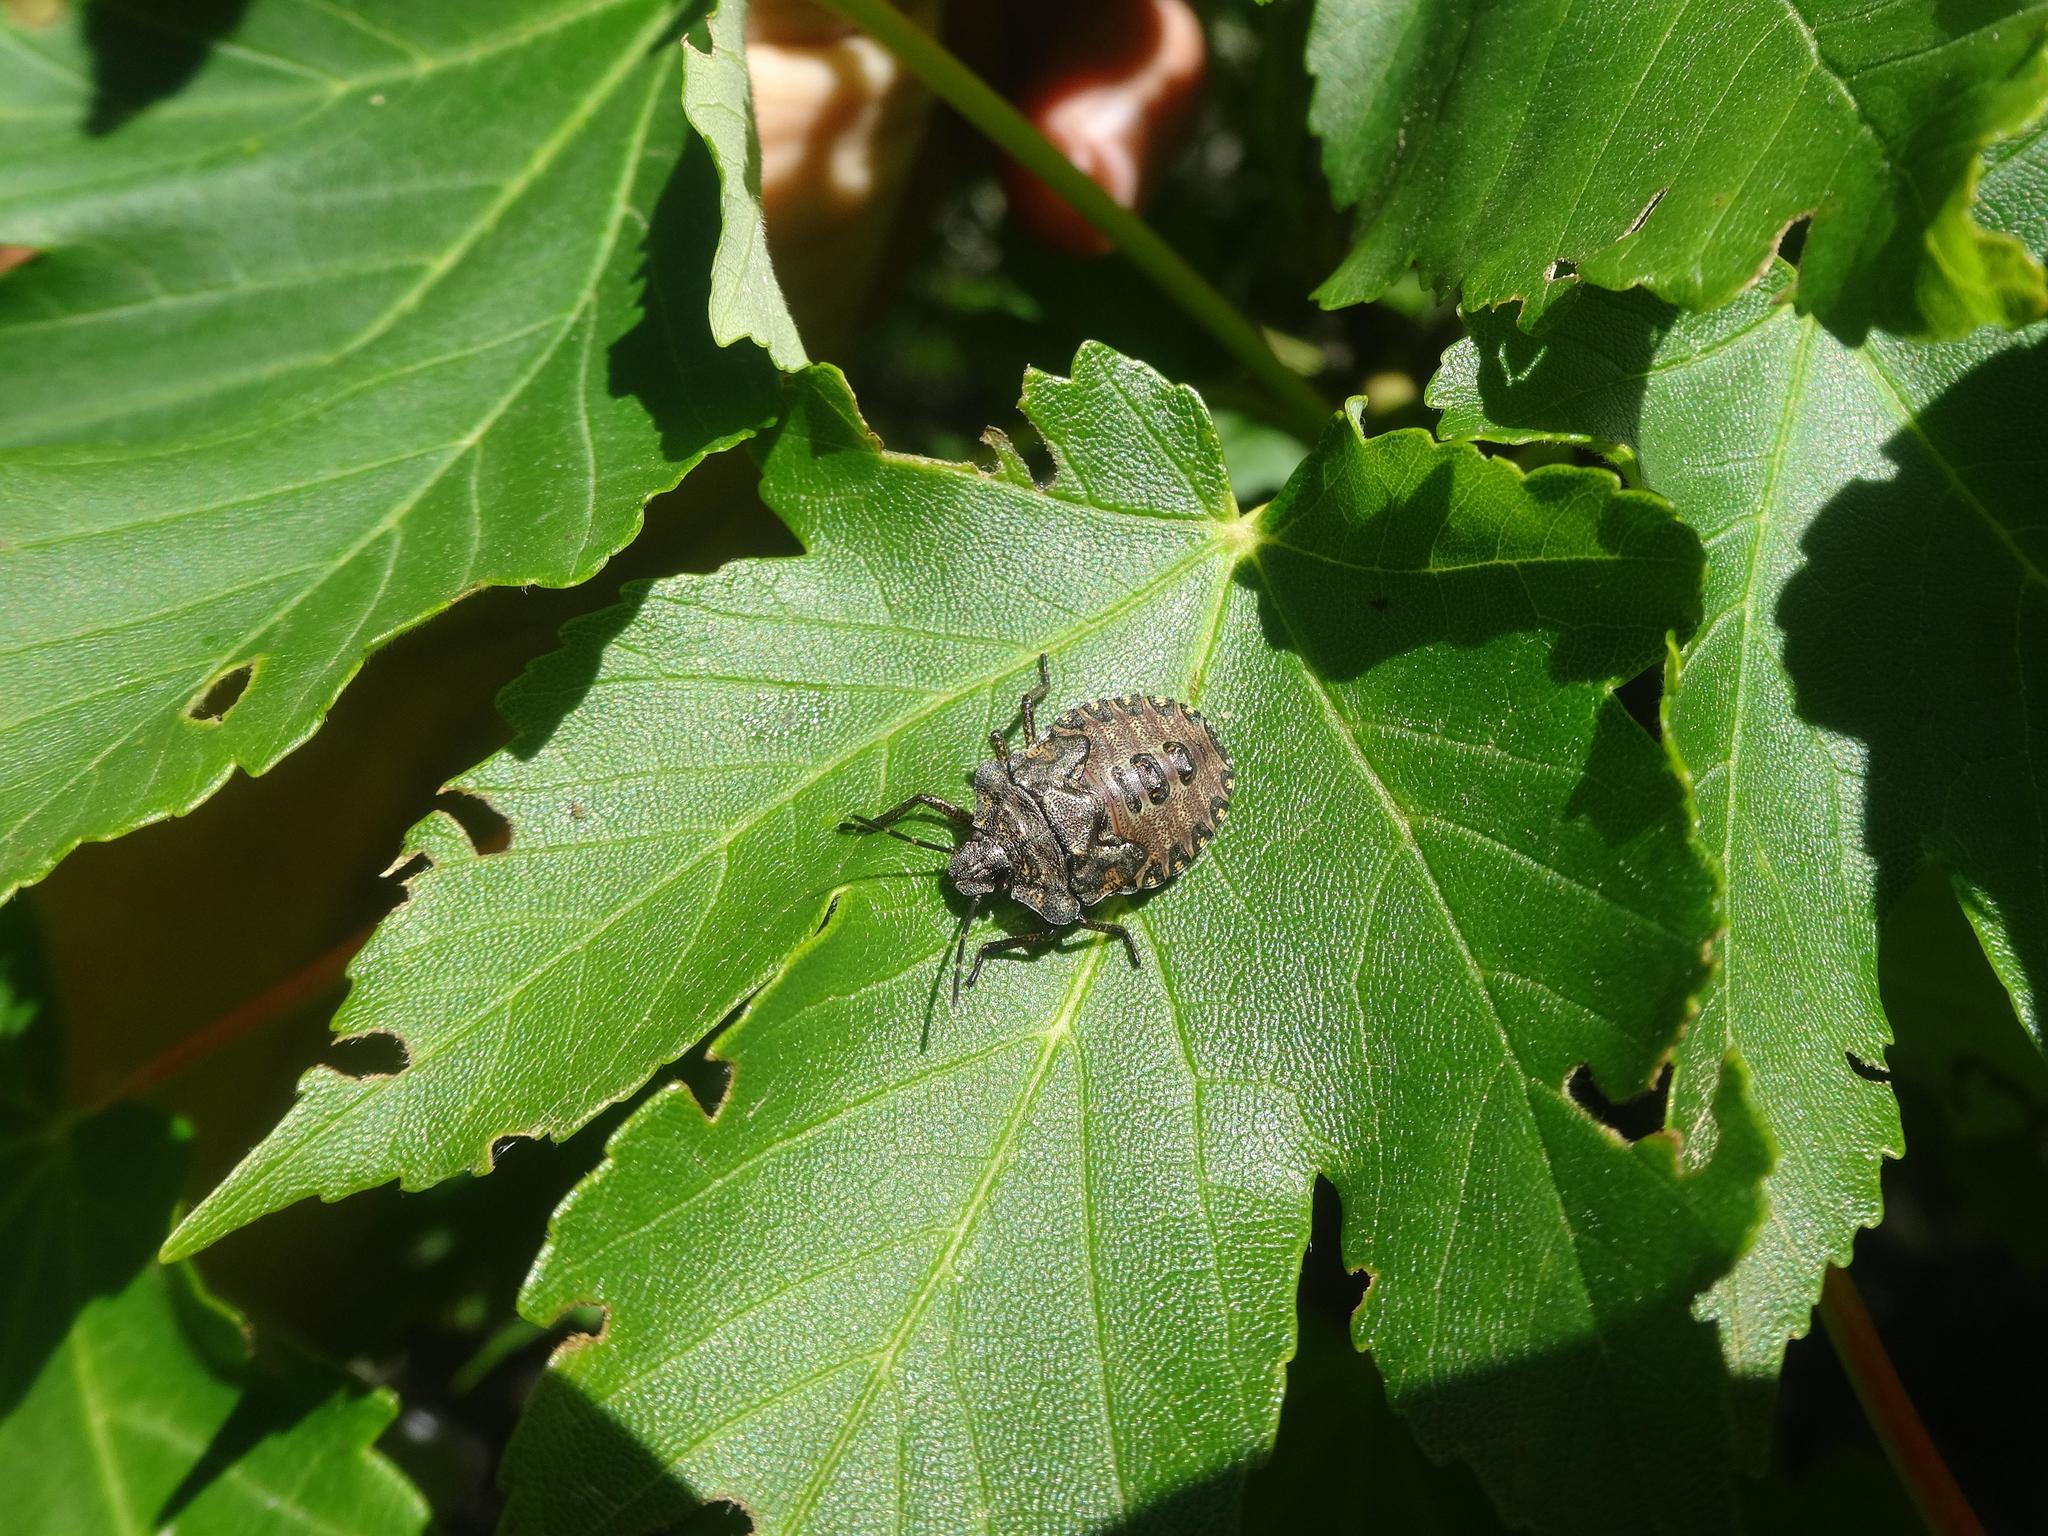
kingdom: Animalia
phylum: Arthropoda
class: Insecta
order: Hemiptera
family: Pentatomidae
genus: Pentatoma
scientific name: Pentatoma rufipes
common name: Forest bug
